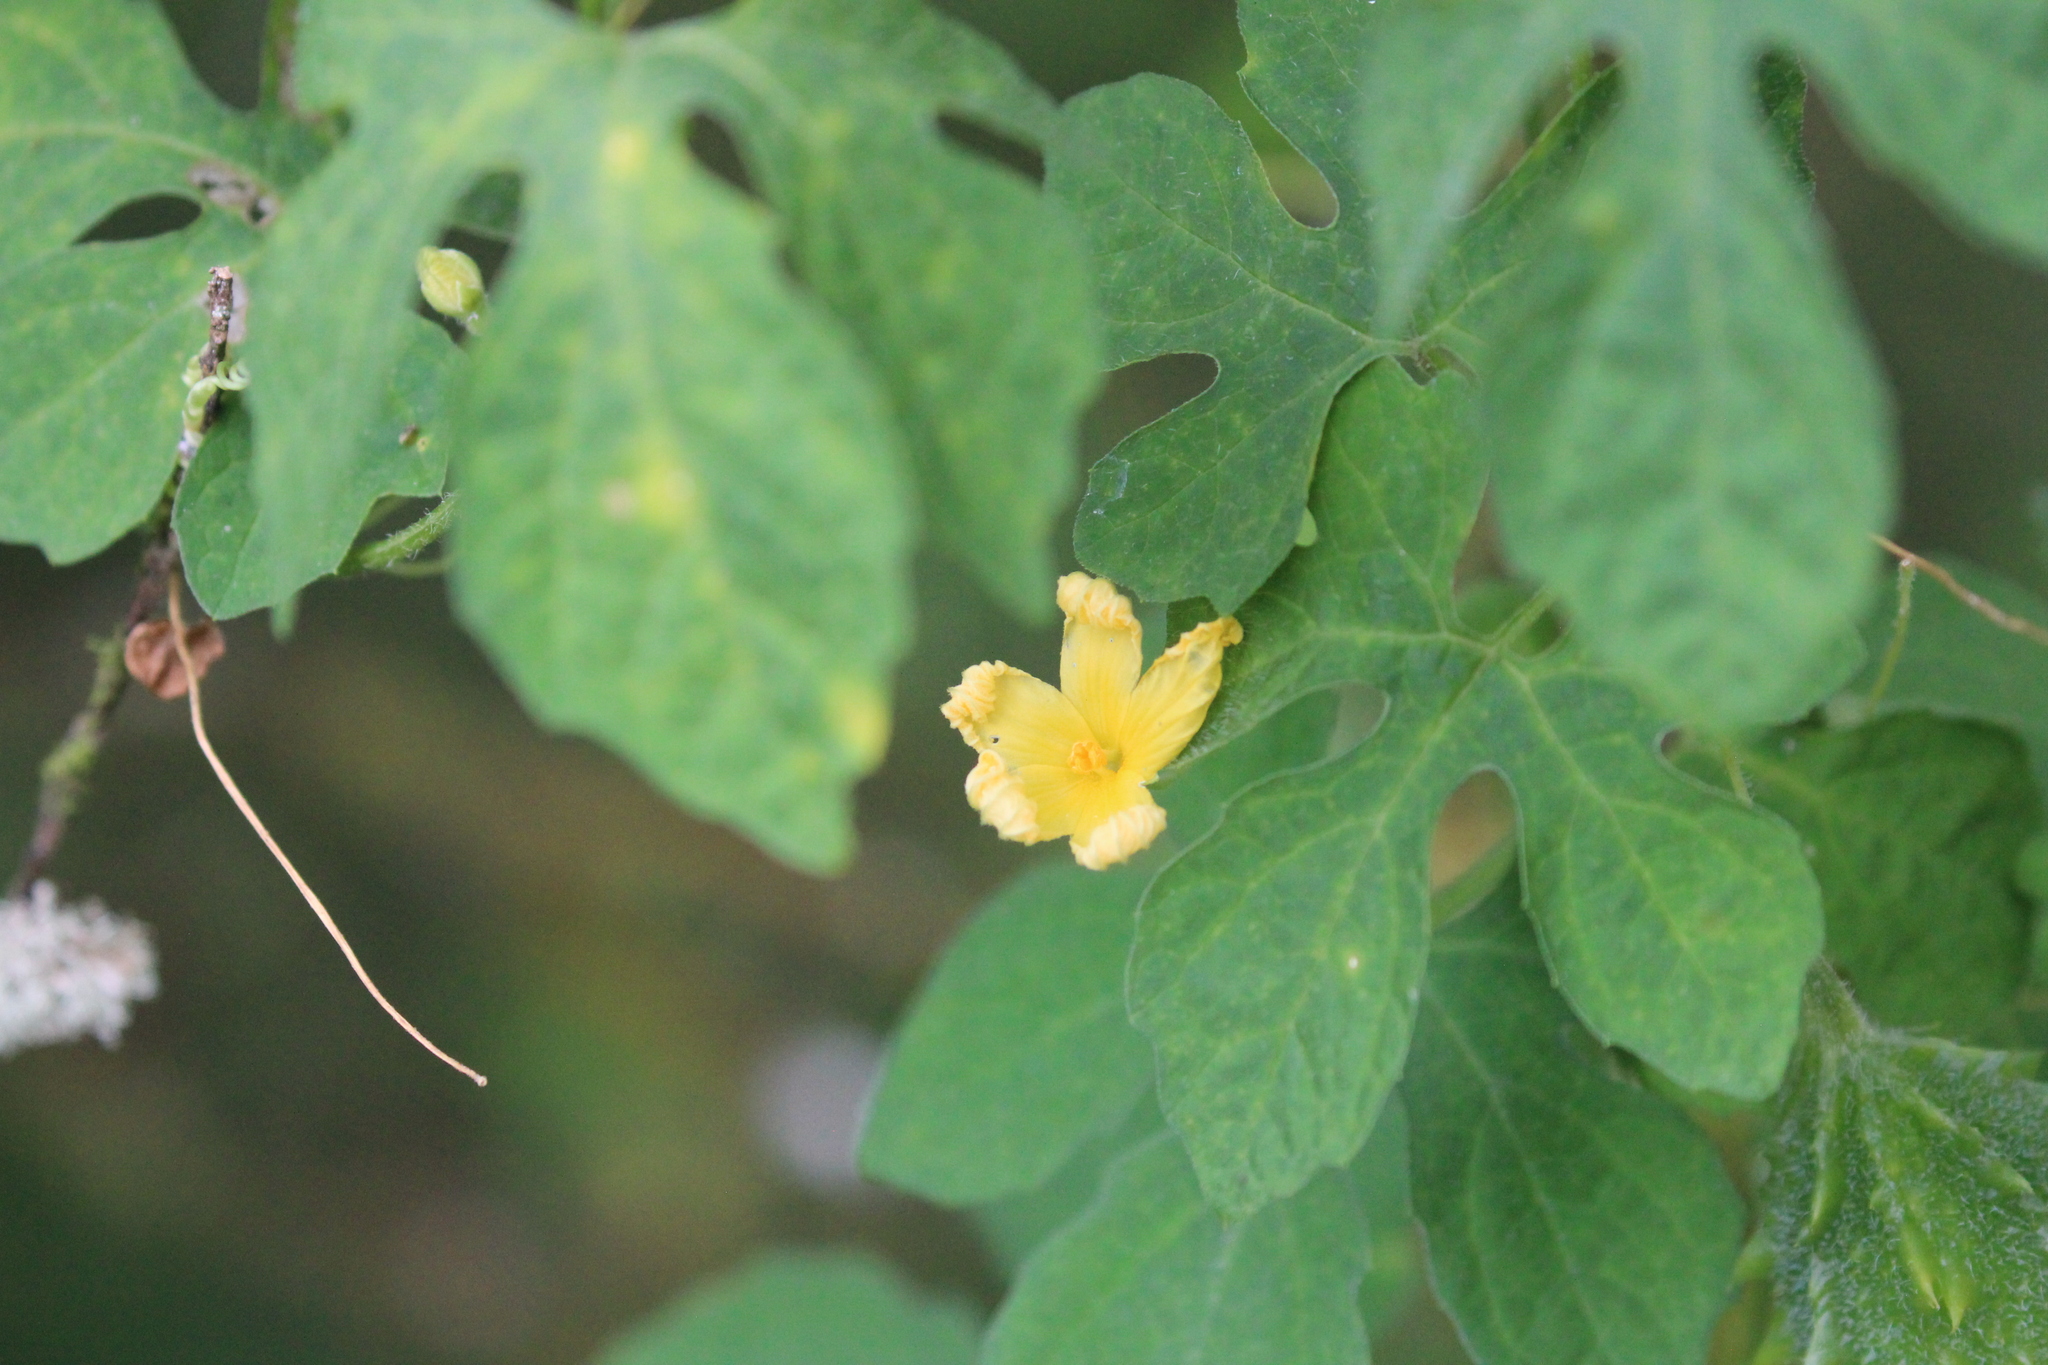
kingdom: Plantae
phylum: Tracheophyta
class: Magnoliopsida
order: Cucurbitales
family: Cucurbitaceae
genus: Momordica
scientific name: Momordica charantia
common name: Balsampear
